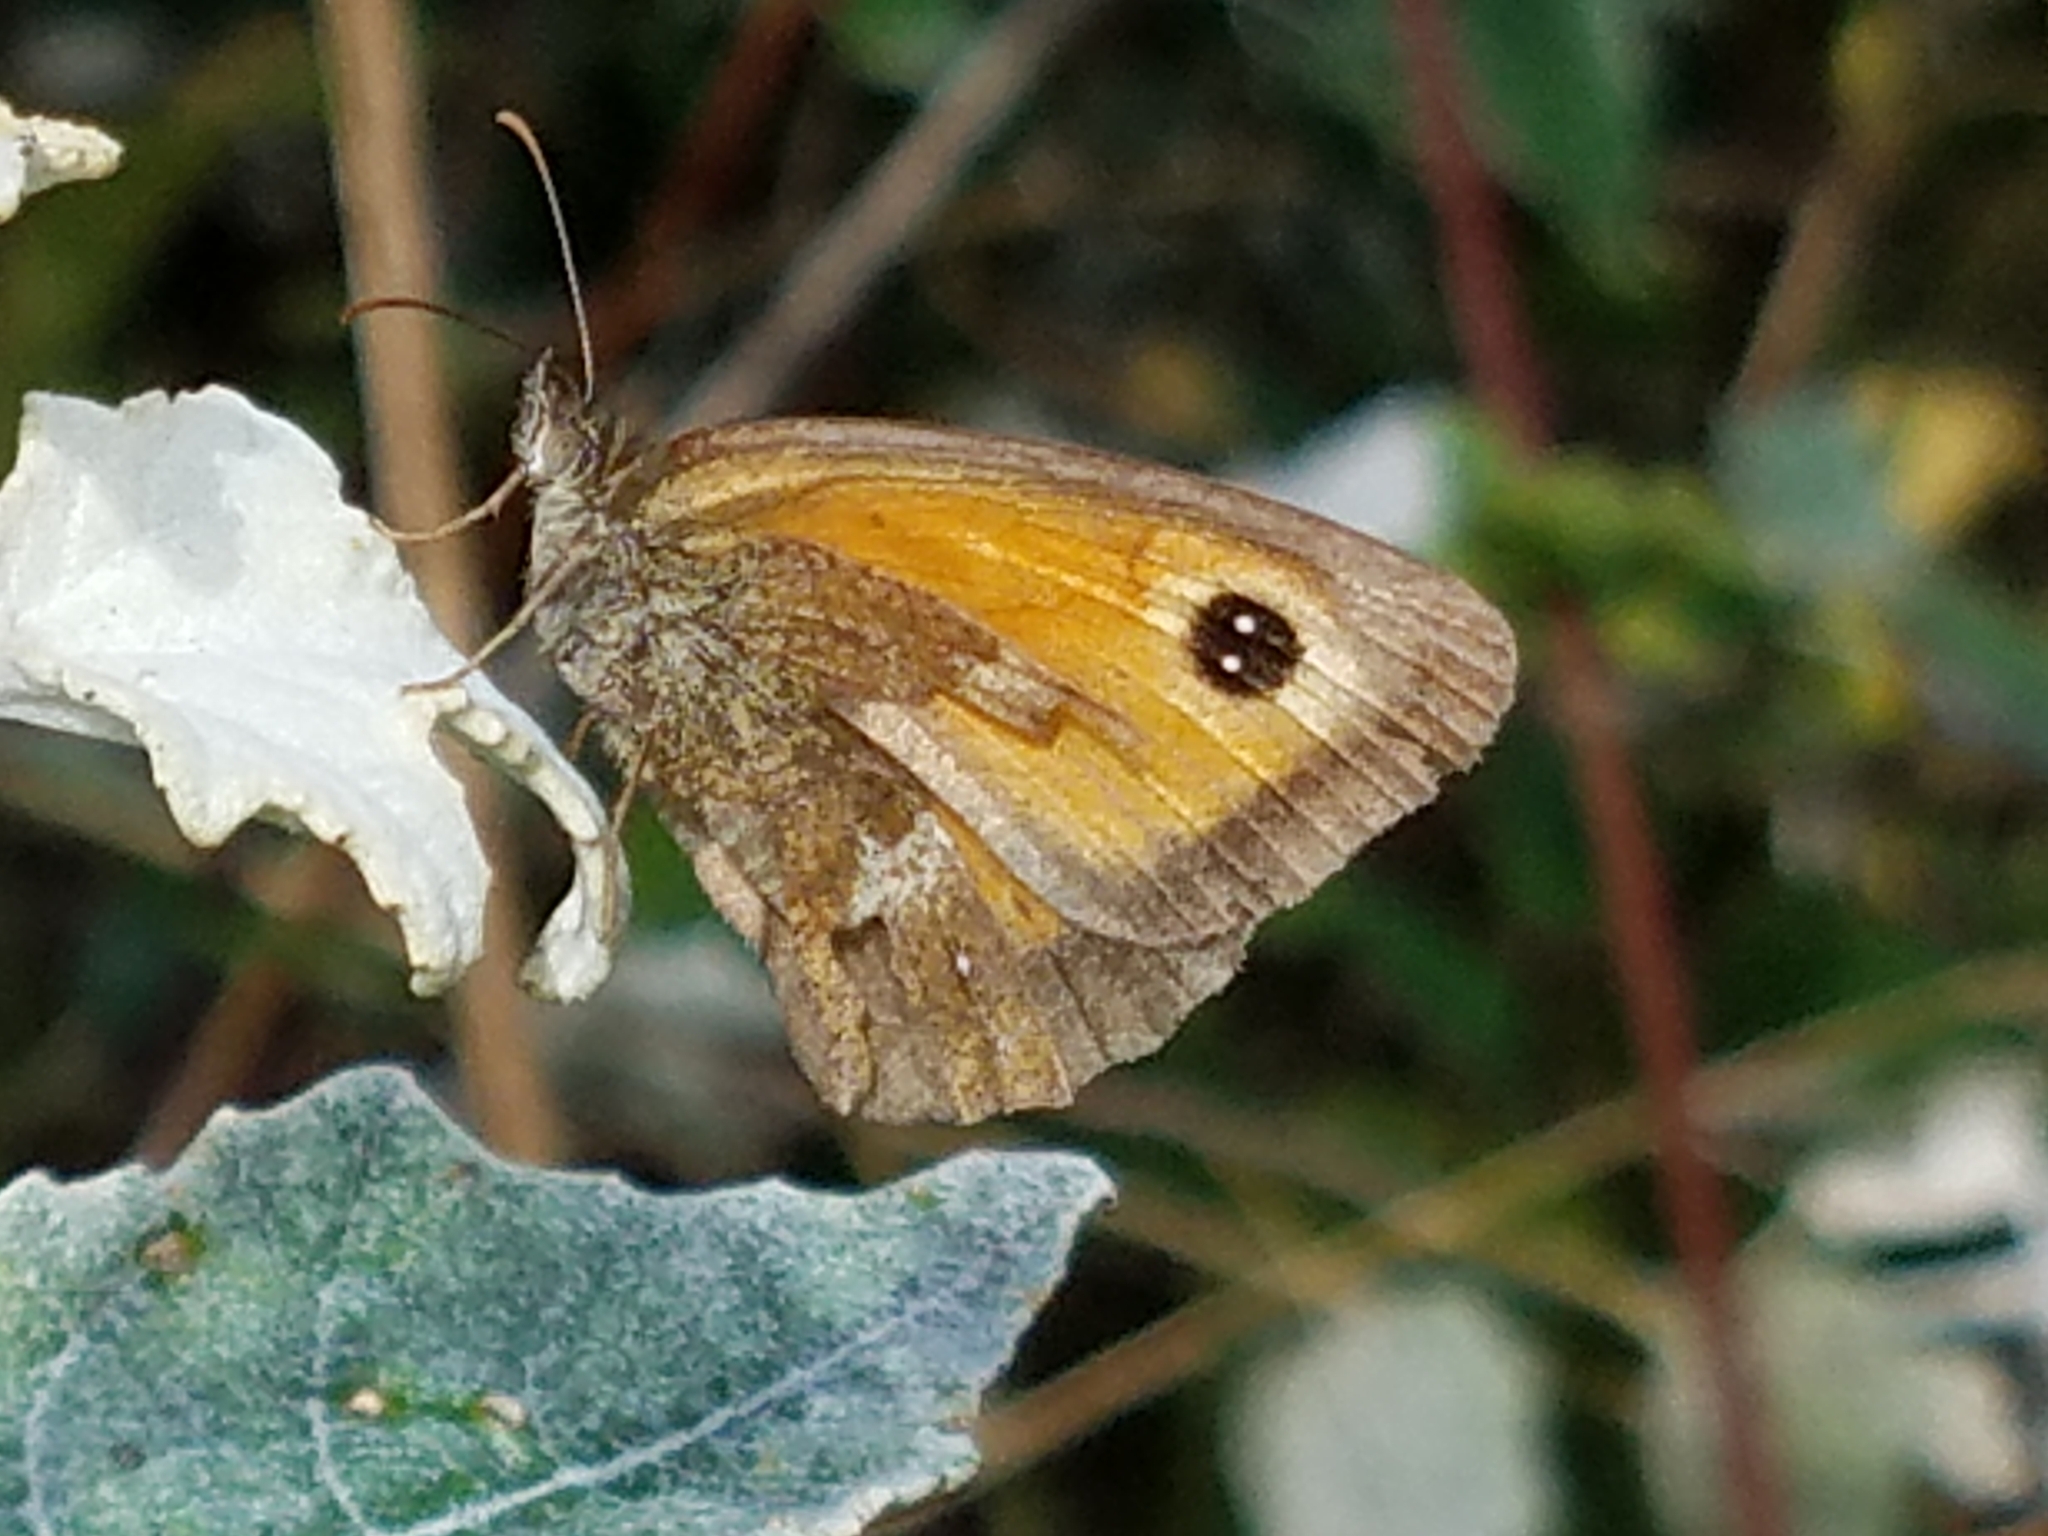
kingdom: Animalia
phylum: Arthropoda
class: Insecta
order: Lepidoptera
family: Nymphalidae
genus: Pyronia
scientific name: Pyronia tithonus
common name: Gatekeeper
